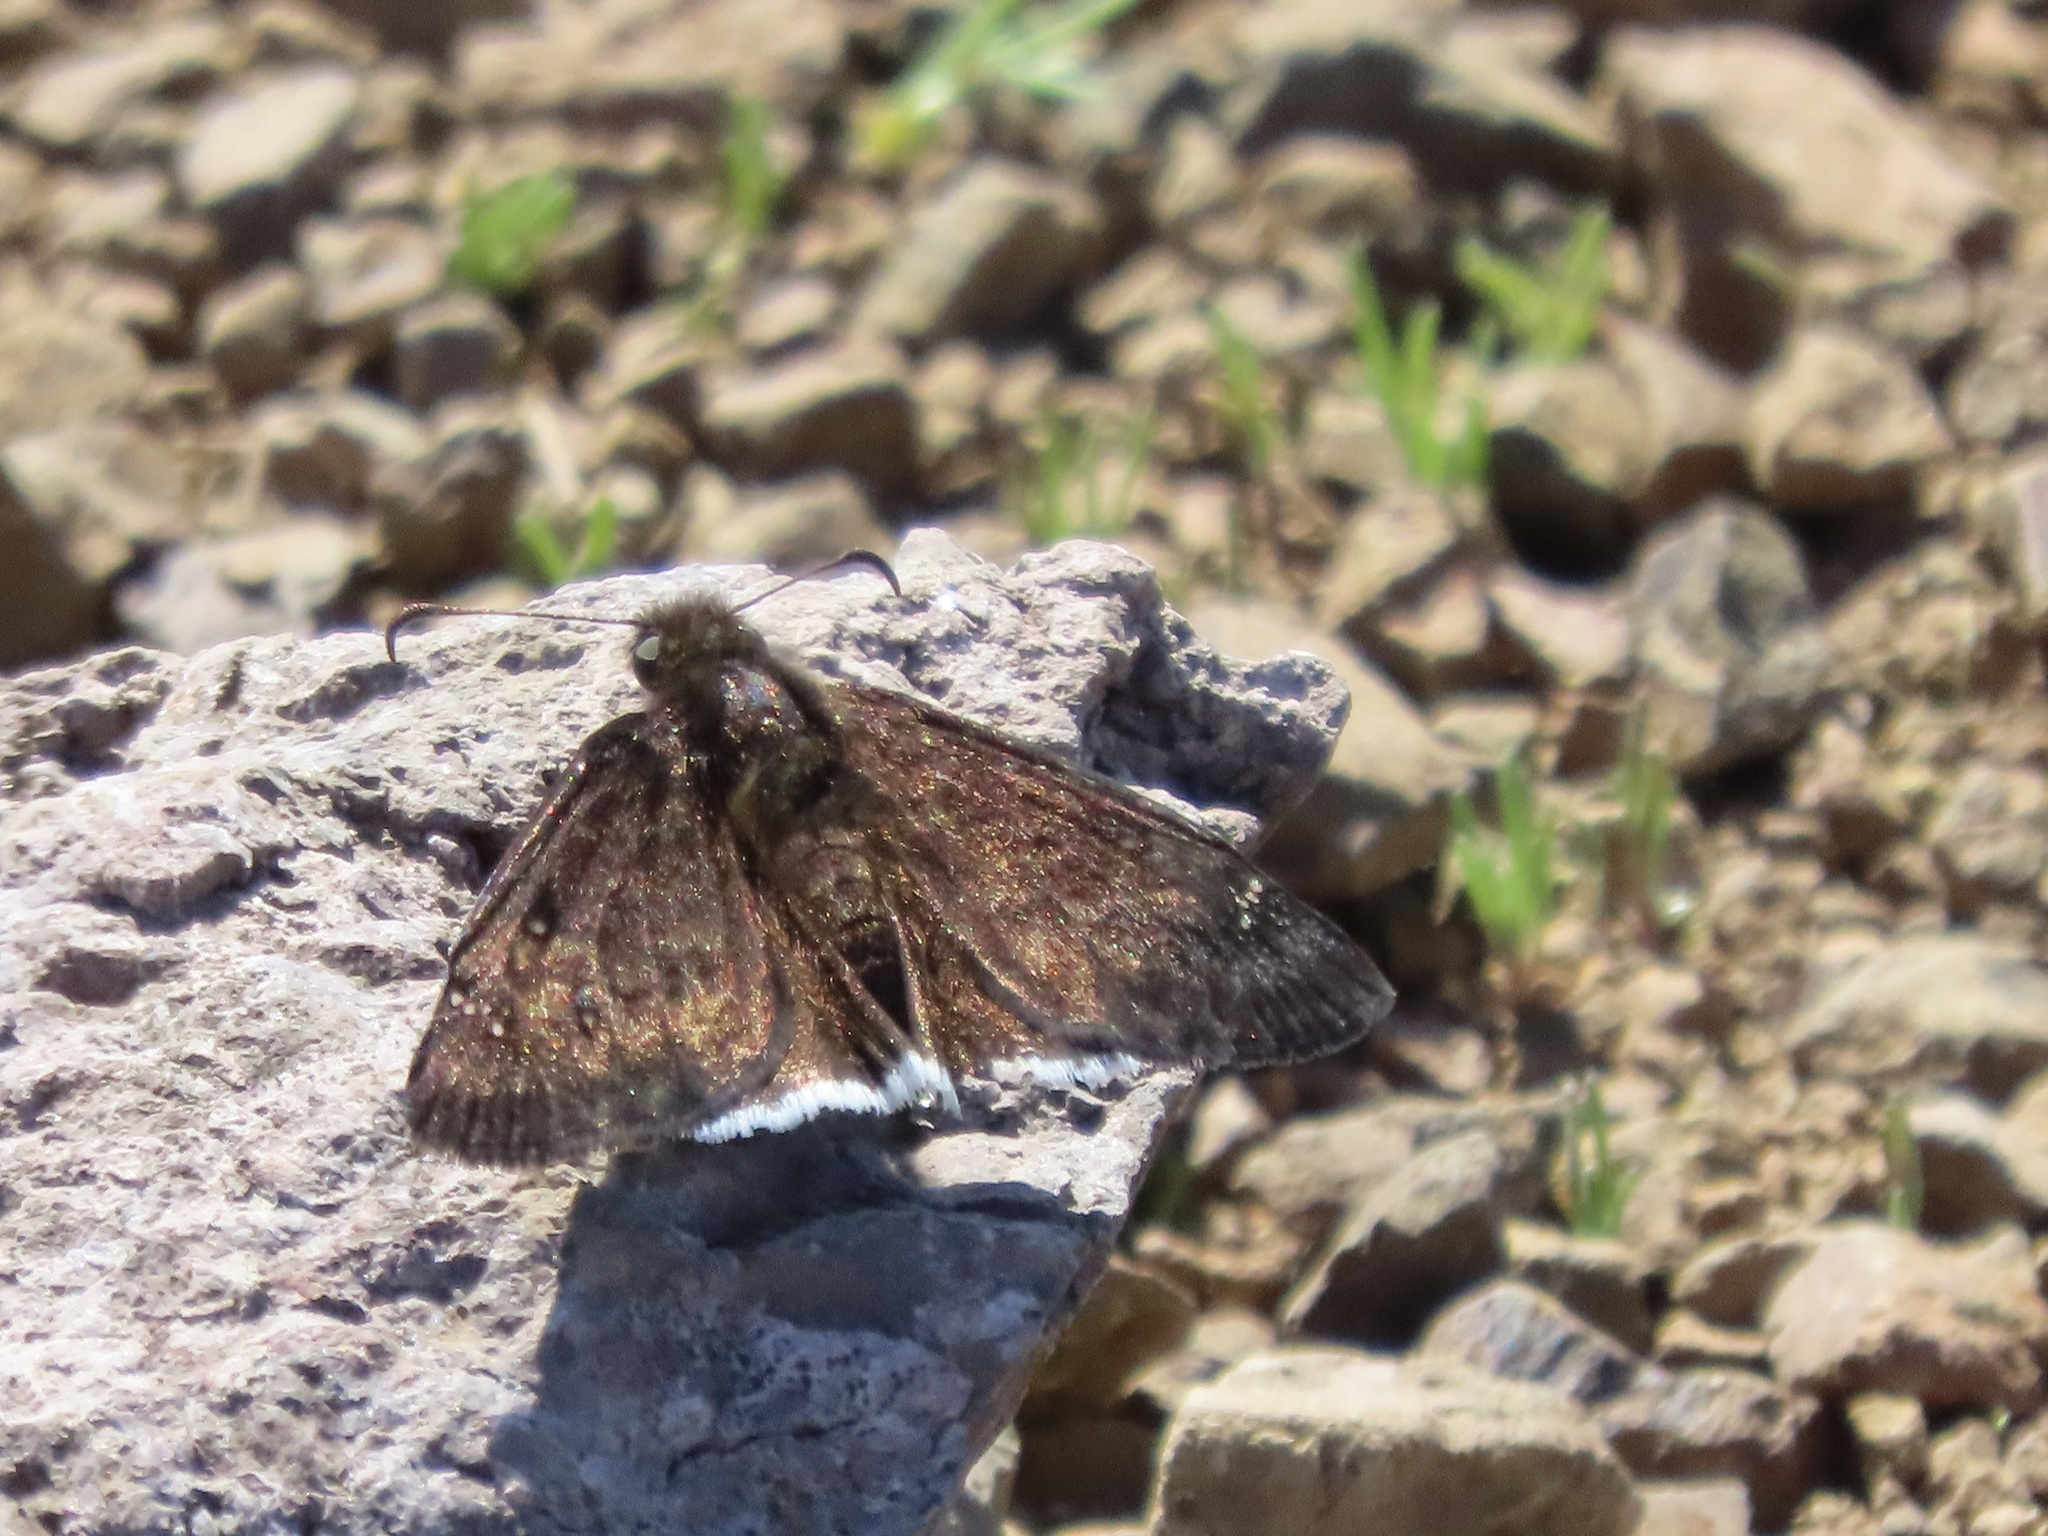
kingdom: Animalia
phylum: Arthropoda
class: Insecta
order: Lepidoptera
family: Hesperiidae
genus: Erynnis
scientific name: Erynnis tristis
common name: Mournful duskywing
